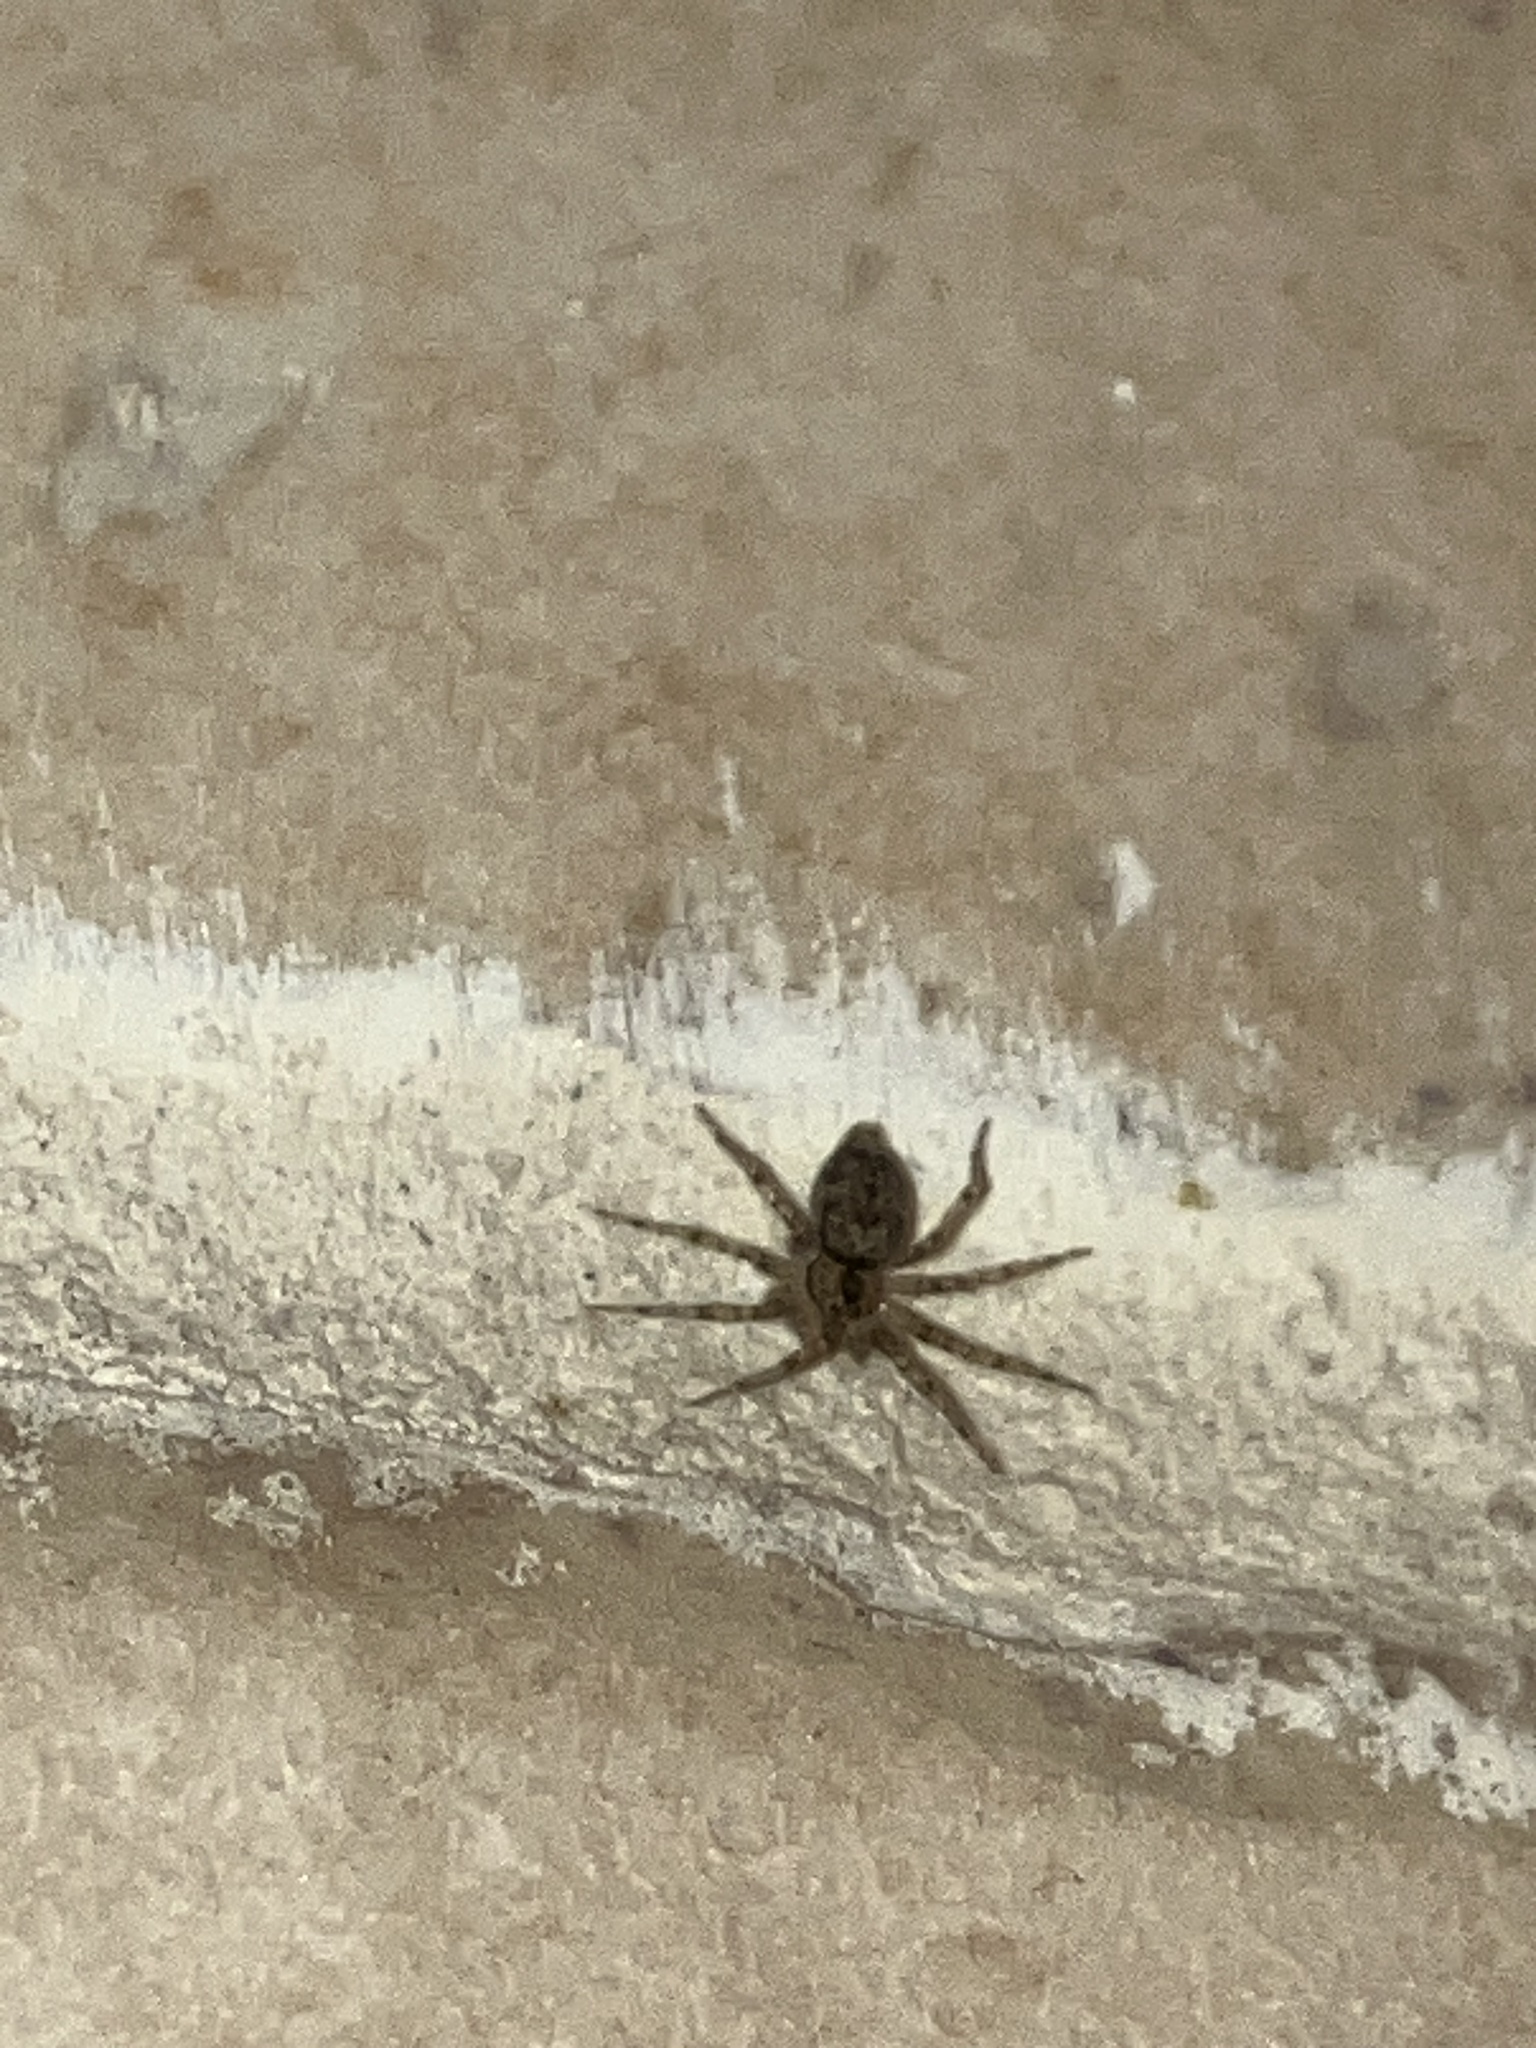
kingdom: Animalia
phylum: Arthropoda
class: Arachnida
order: Araneae
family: Oecobiidae
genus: Oecobius
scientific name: Oecobius navus
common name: Flatmesh weaver
